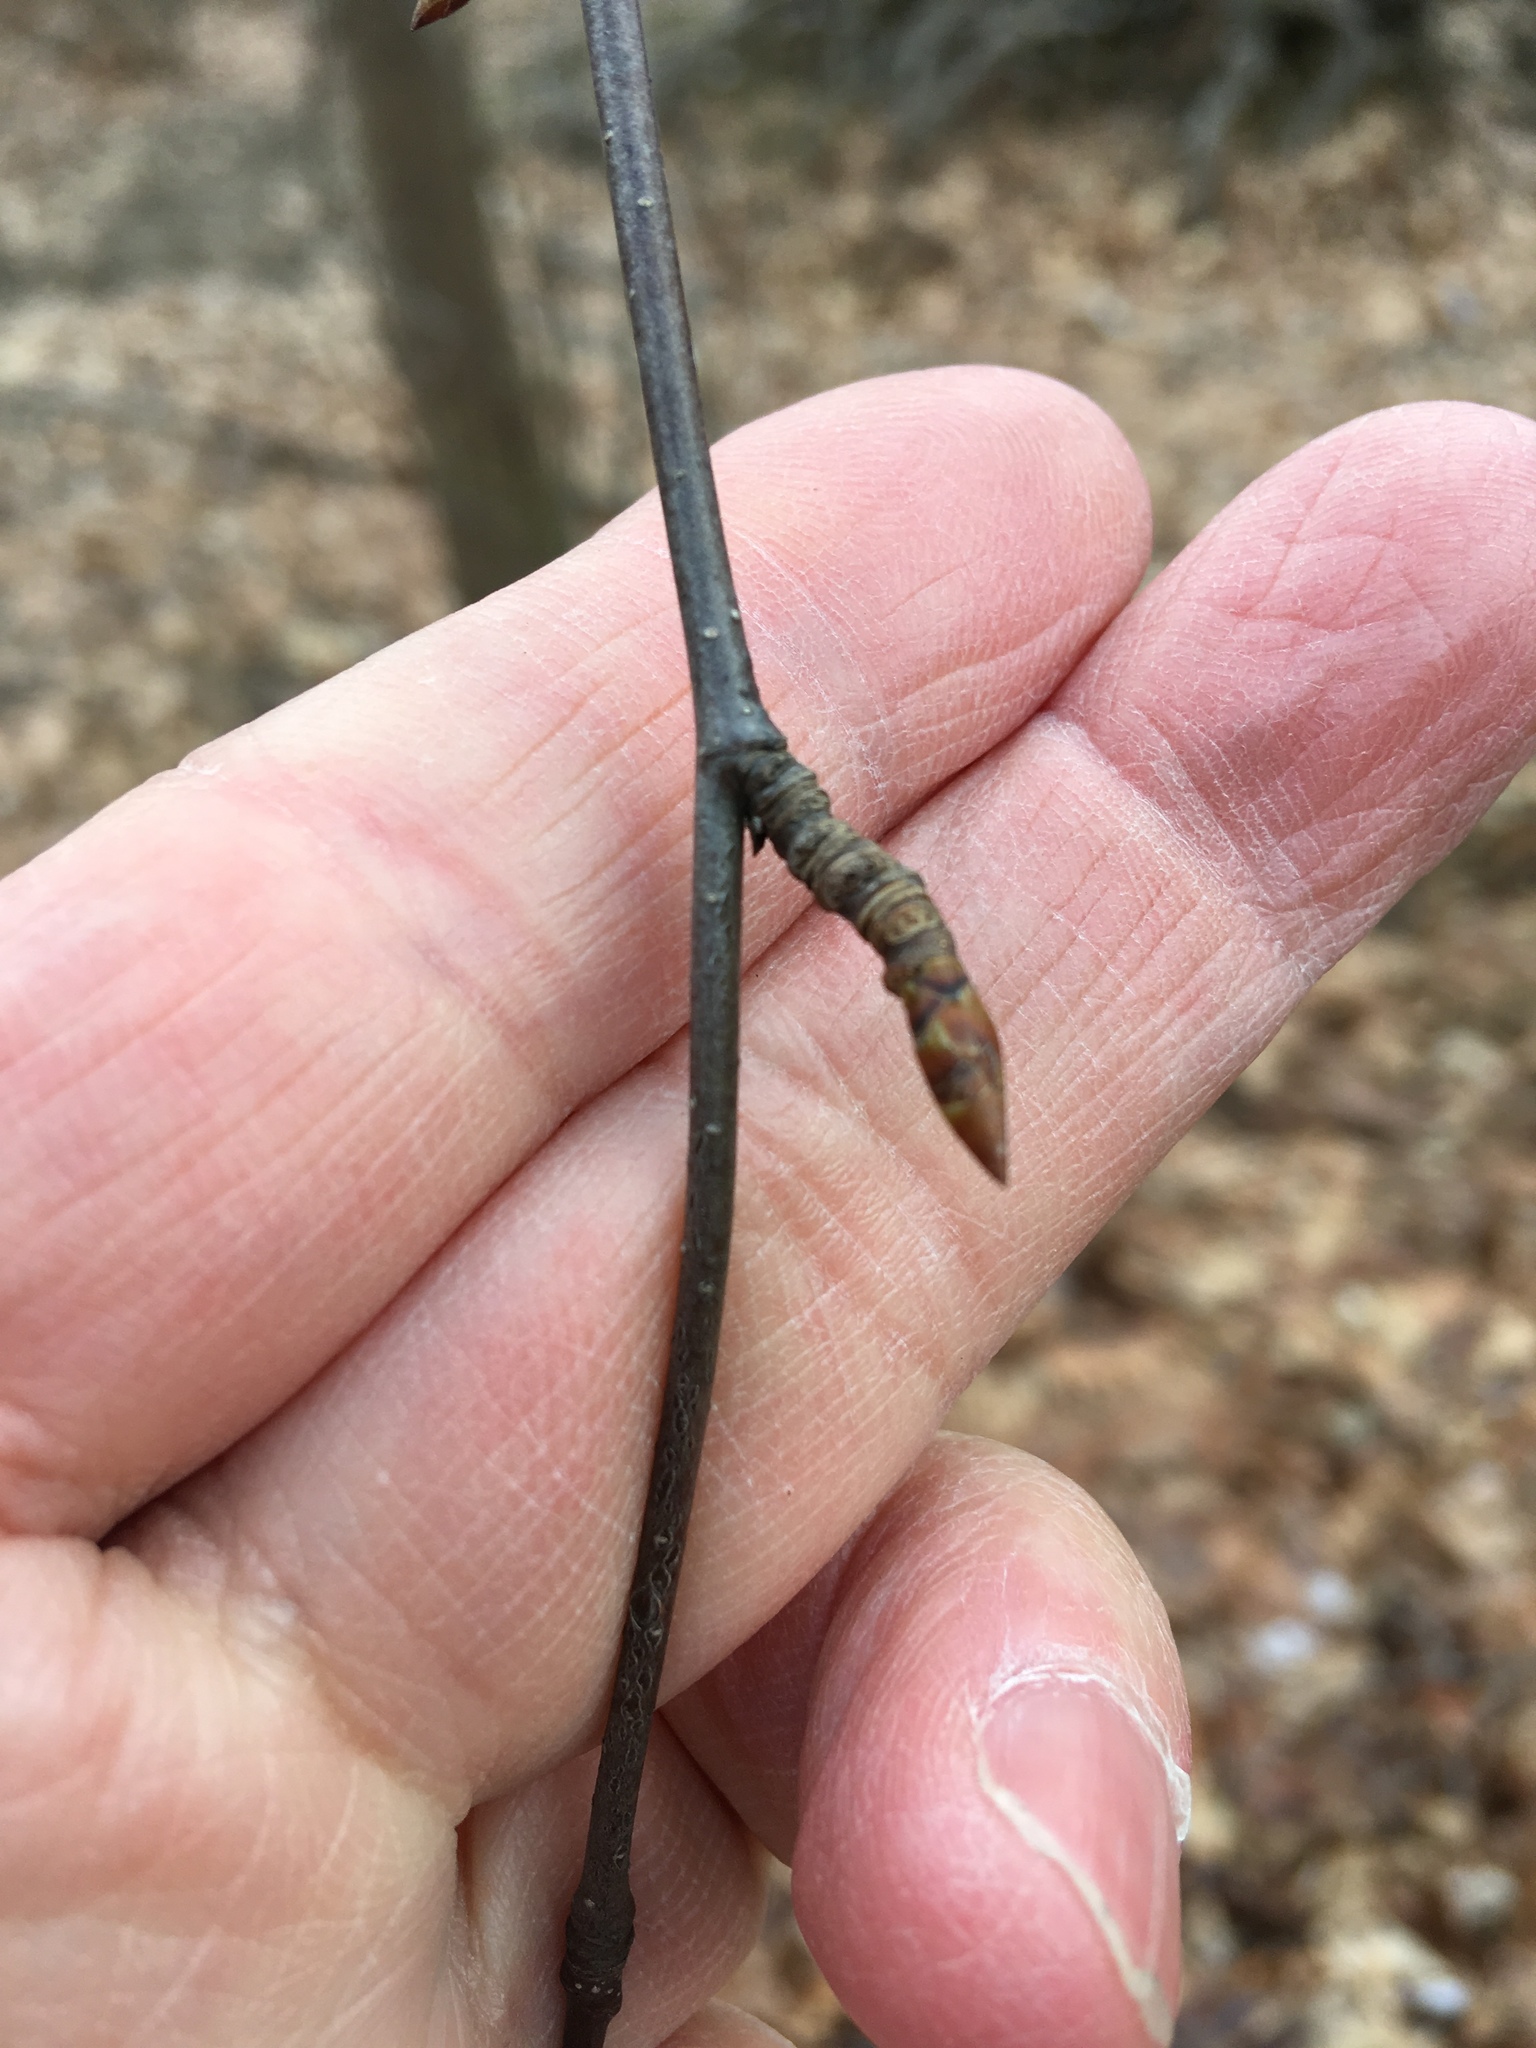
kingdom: Plantae
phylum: Tracheophyta
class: Magnoliopsida
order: Fagales
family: Betulaceae
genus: Betula
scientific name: Betula lenta
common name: Black birch
